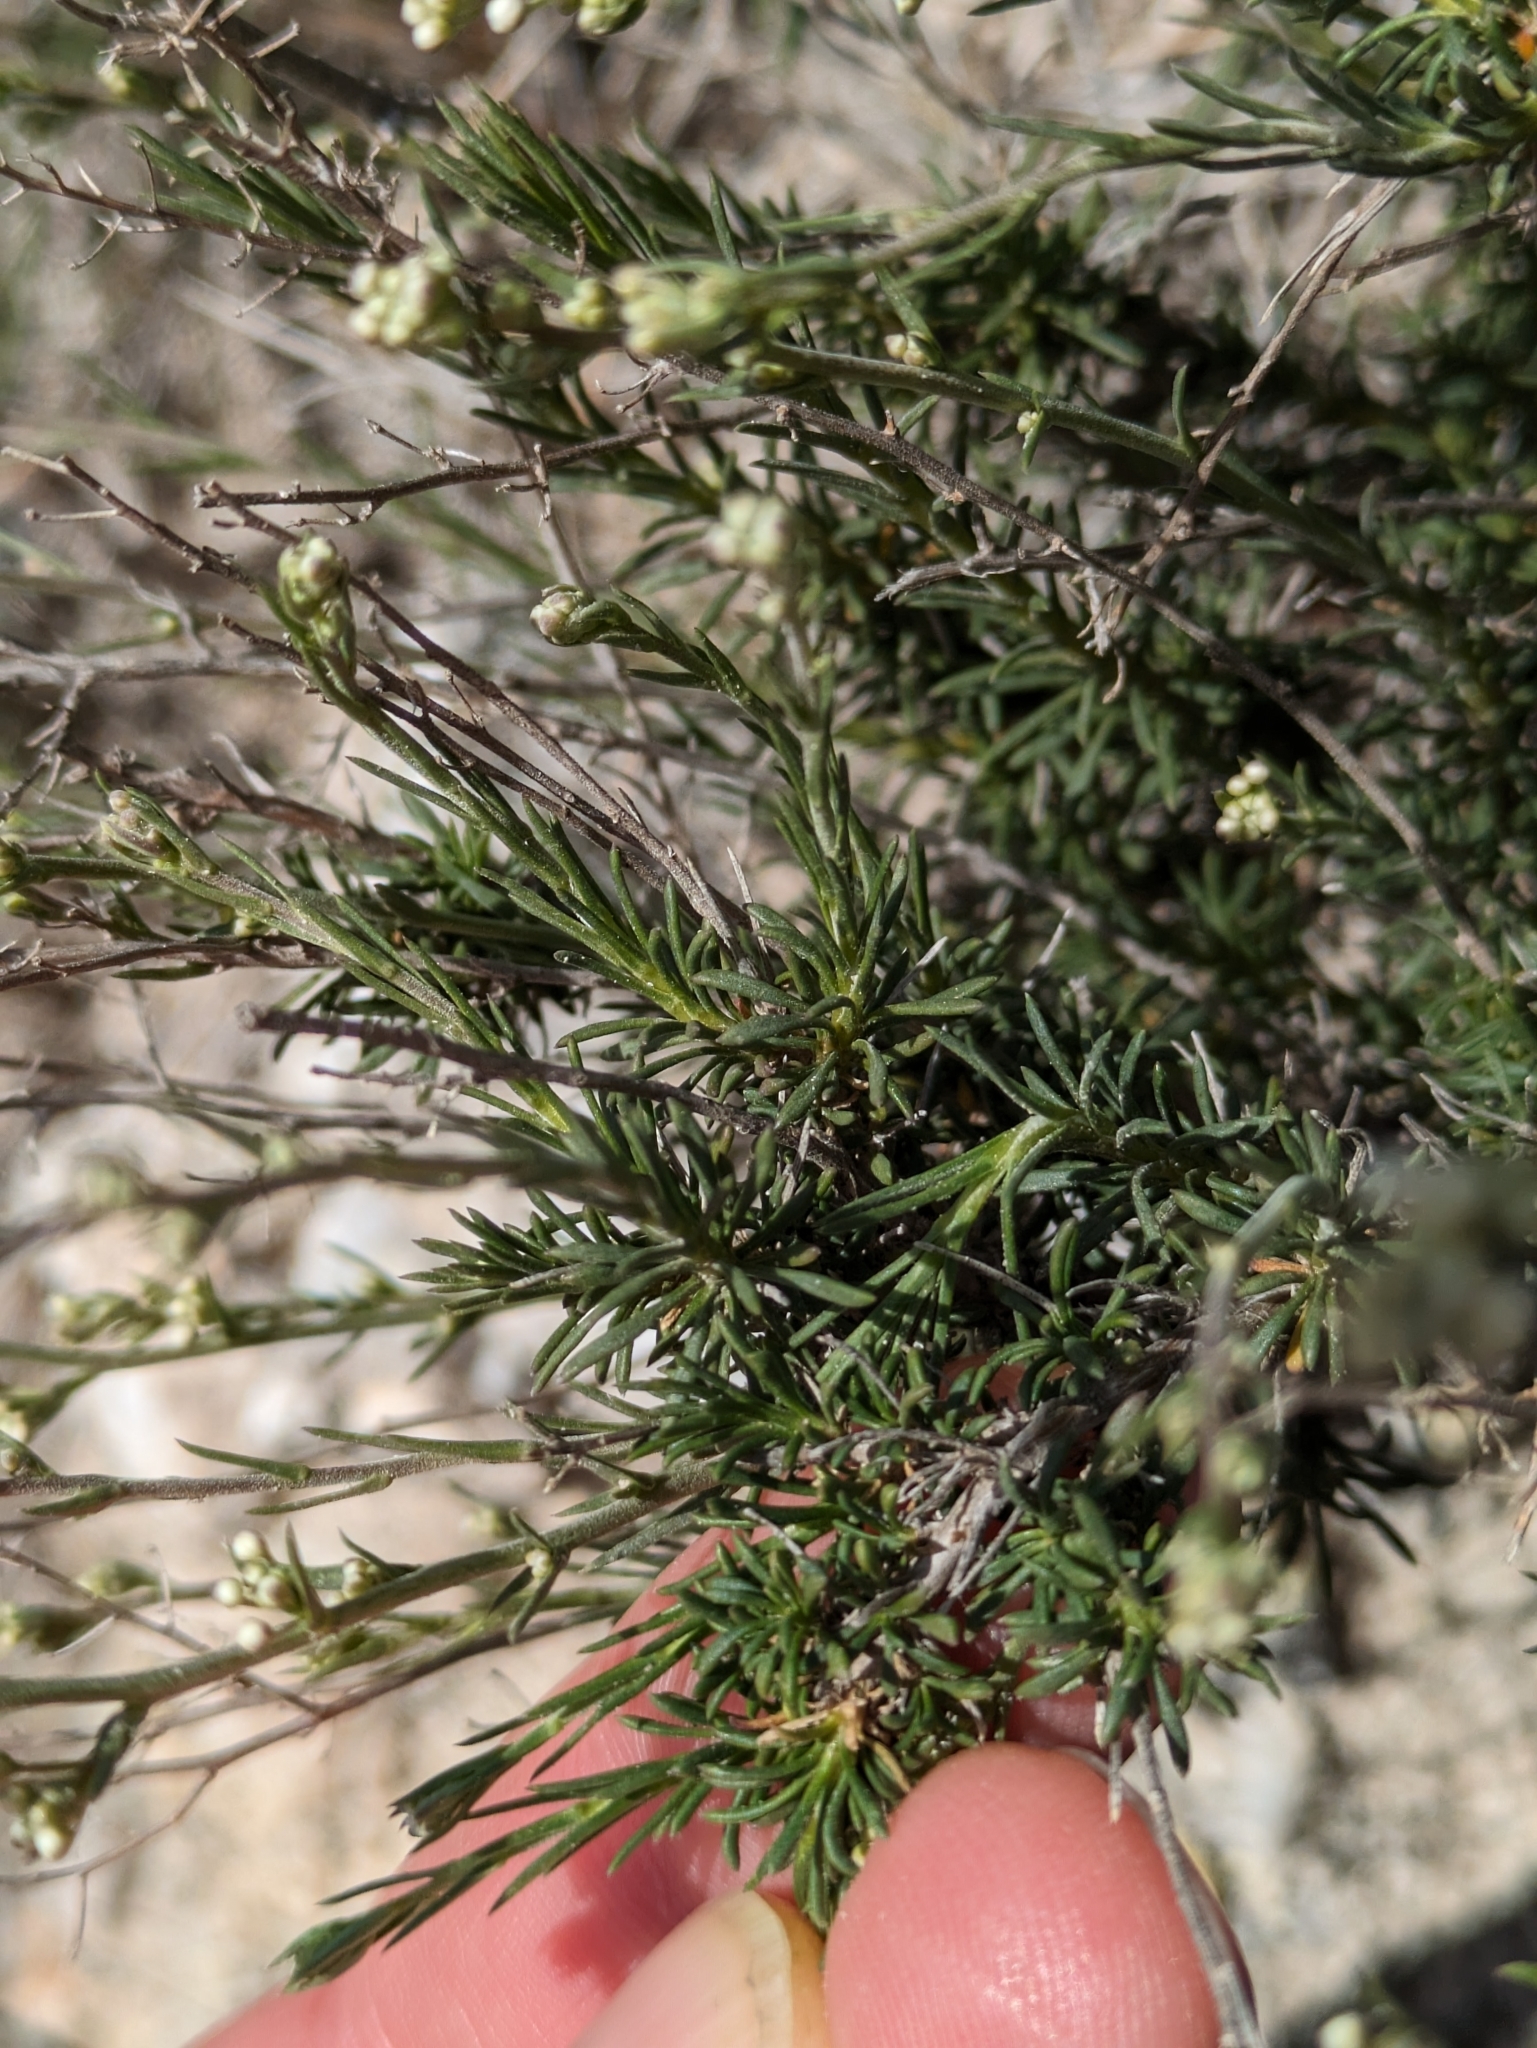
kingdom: Plantae
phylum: Tracheophyta
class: Magnoliopsida
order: Brassicales
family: Brassicaceae
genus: Lepidium
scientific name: Lepidium subulatum
